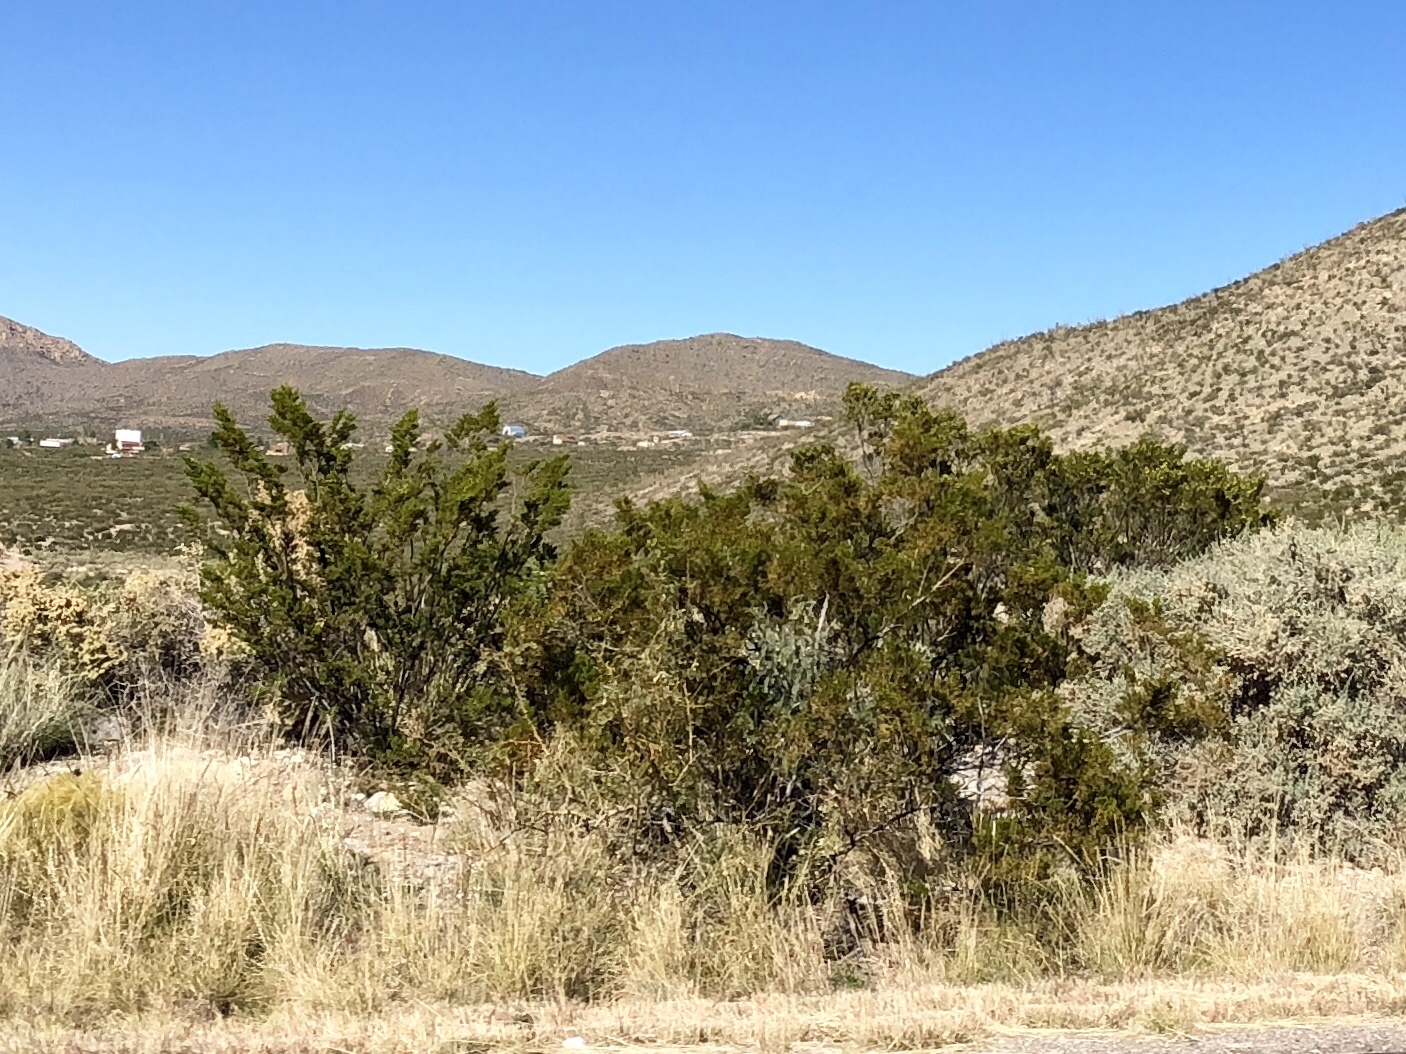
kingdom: Plantae
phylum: Tracheophyta
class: Magnoliopsida
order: Zygophyllales
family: Zygophyllaceae
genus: Larrea
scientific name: Larrea tridentata
